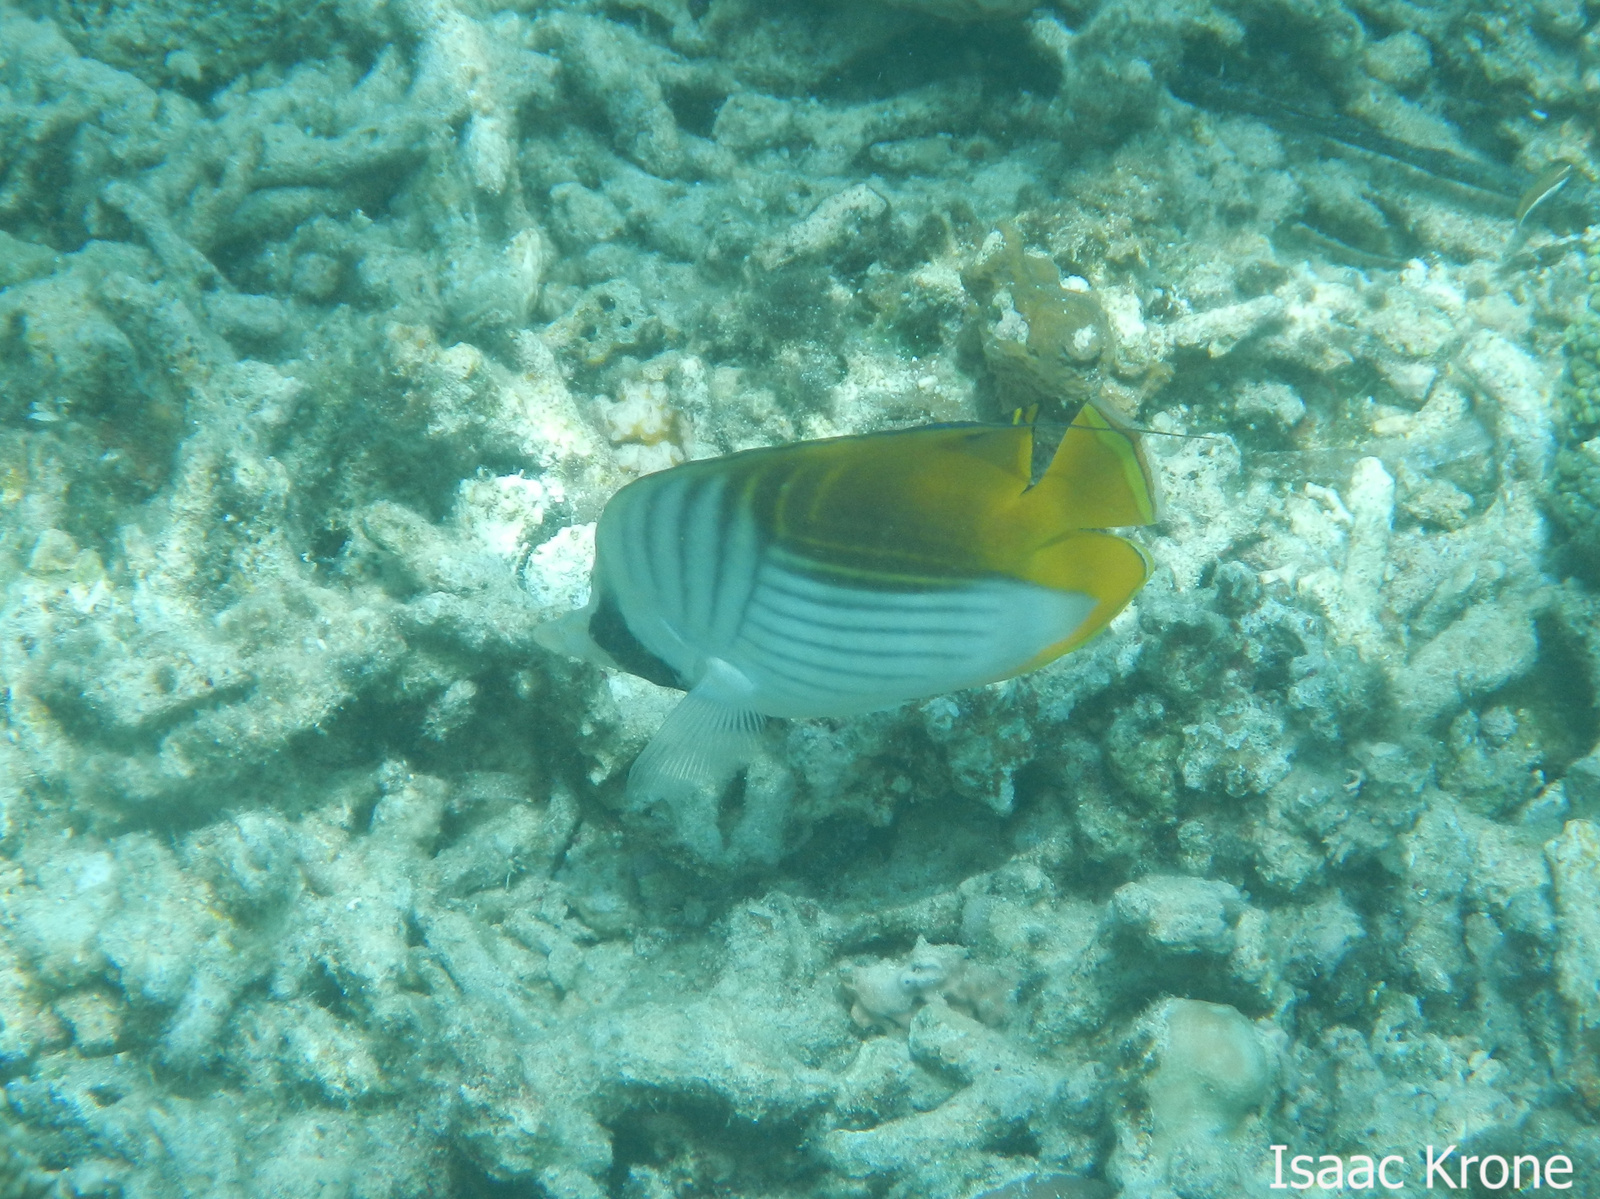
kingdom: Animalia
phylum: Chordata
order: Perciformes
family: Chaetodontidae
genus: Chaetodon
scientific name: Chaetodon auriga
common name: Threadfin butterflyfish
